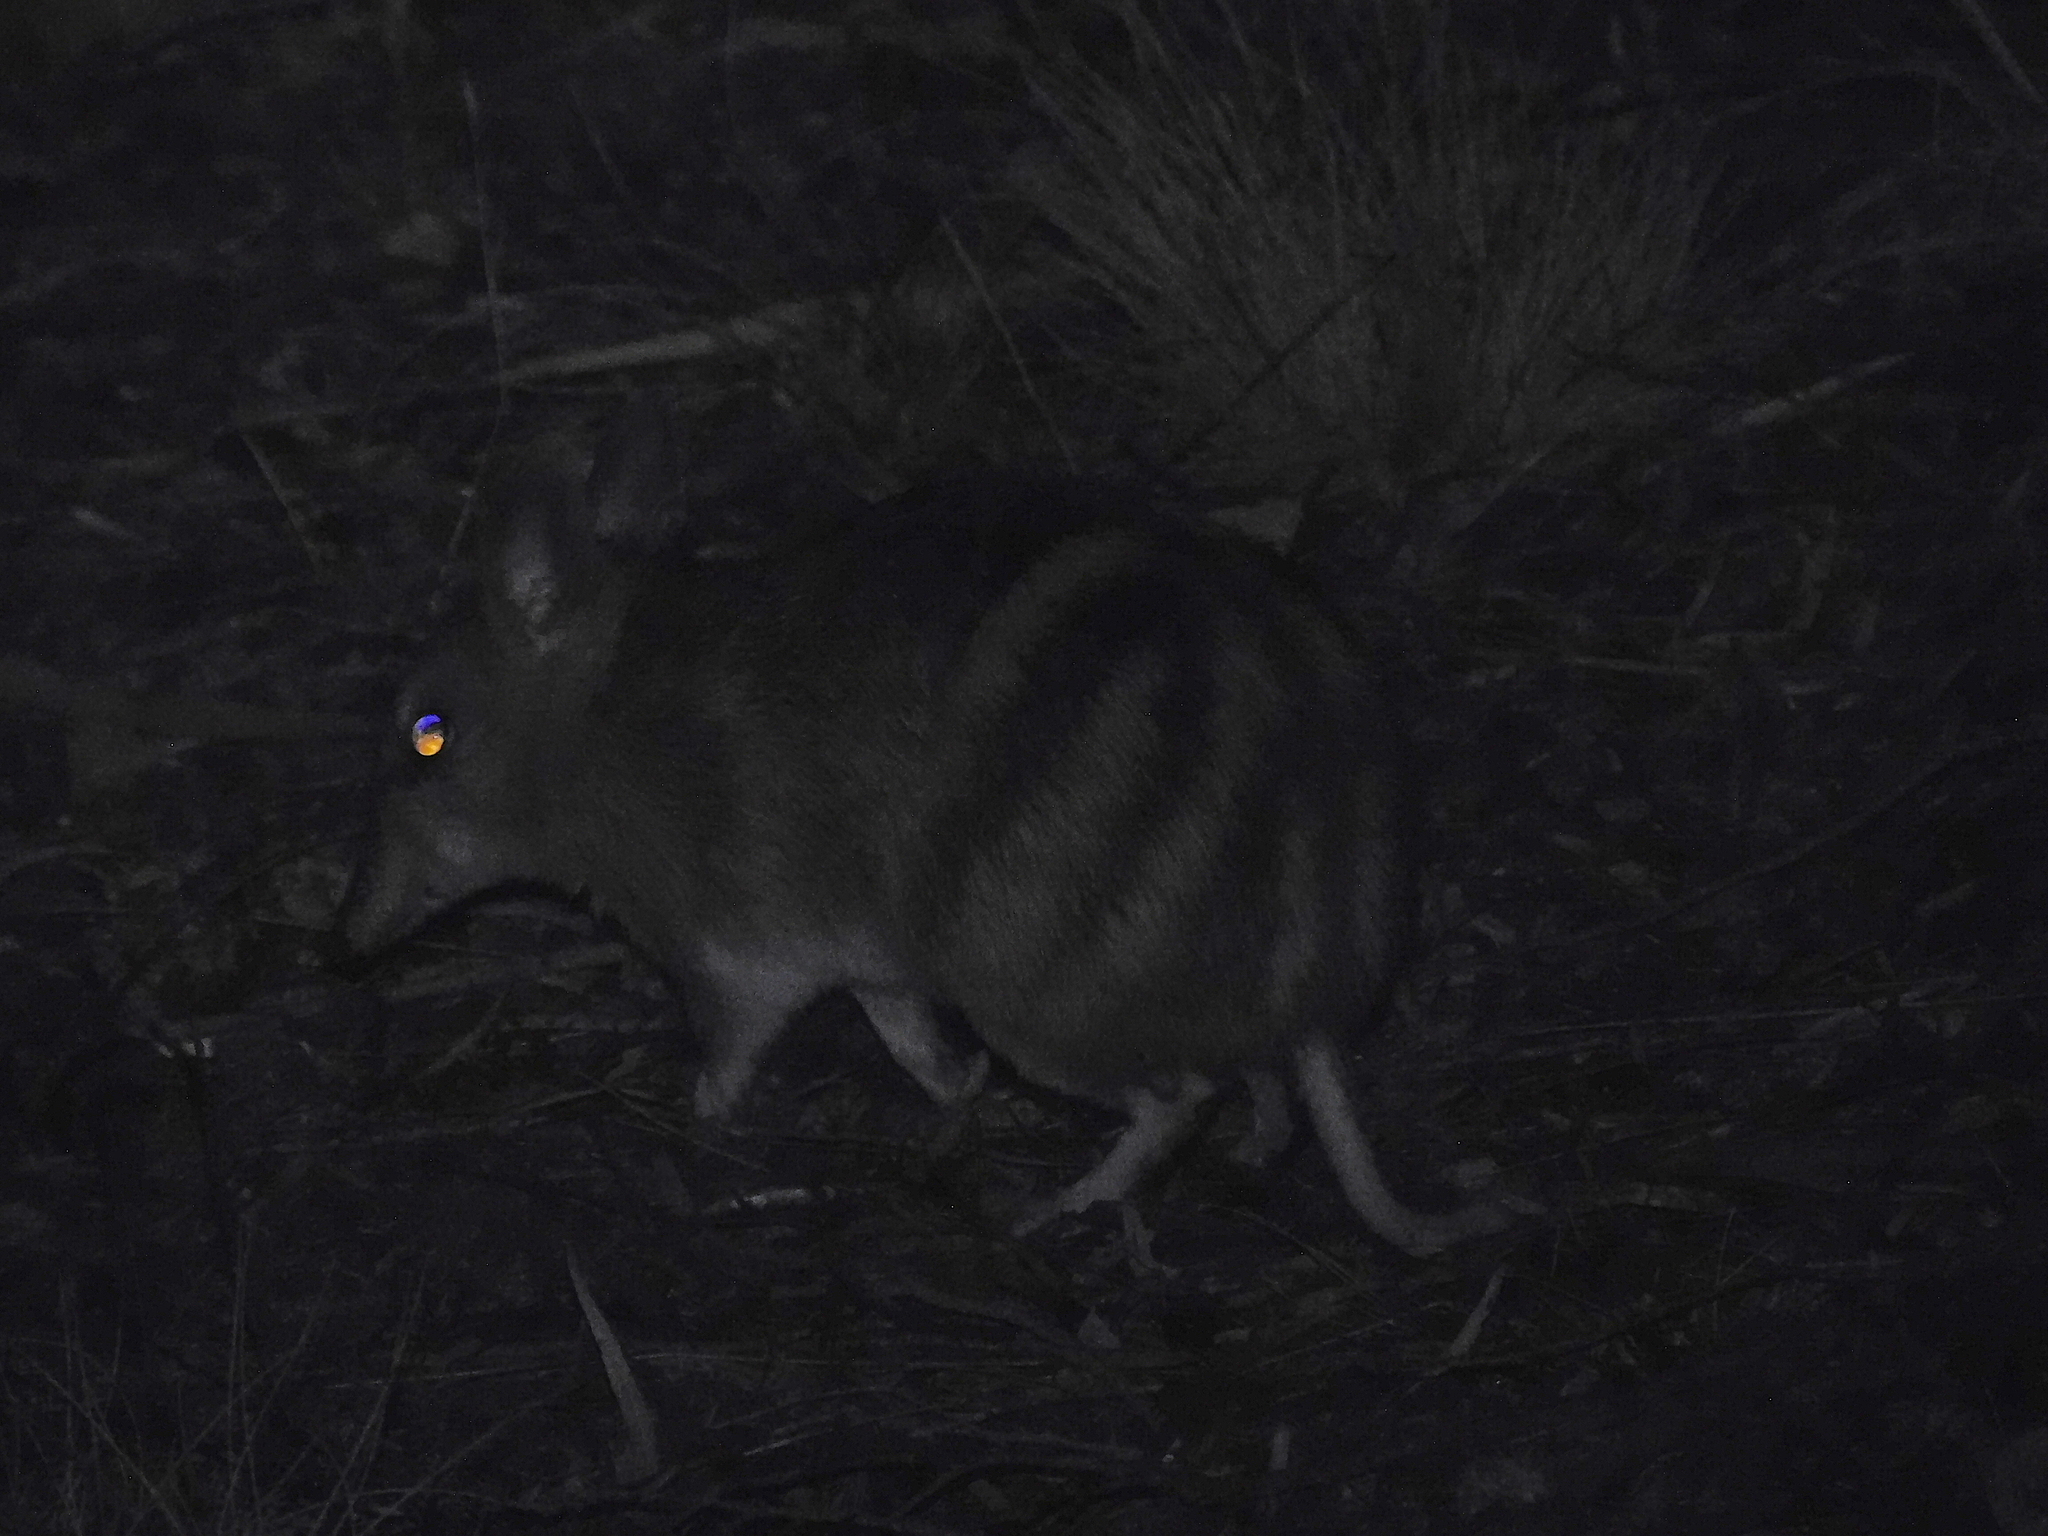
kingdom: Animalia
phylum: Chordata
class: Mammalia
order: Peramelemorphia
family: Peramelidae
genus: Perameles
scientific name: Perameles gunnii
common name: Eastern barred bandicoot
